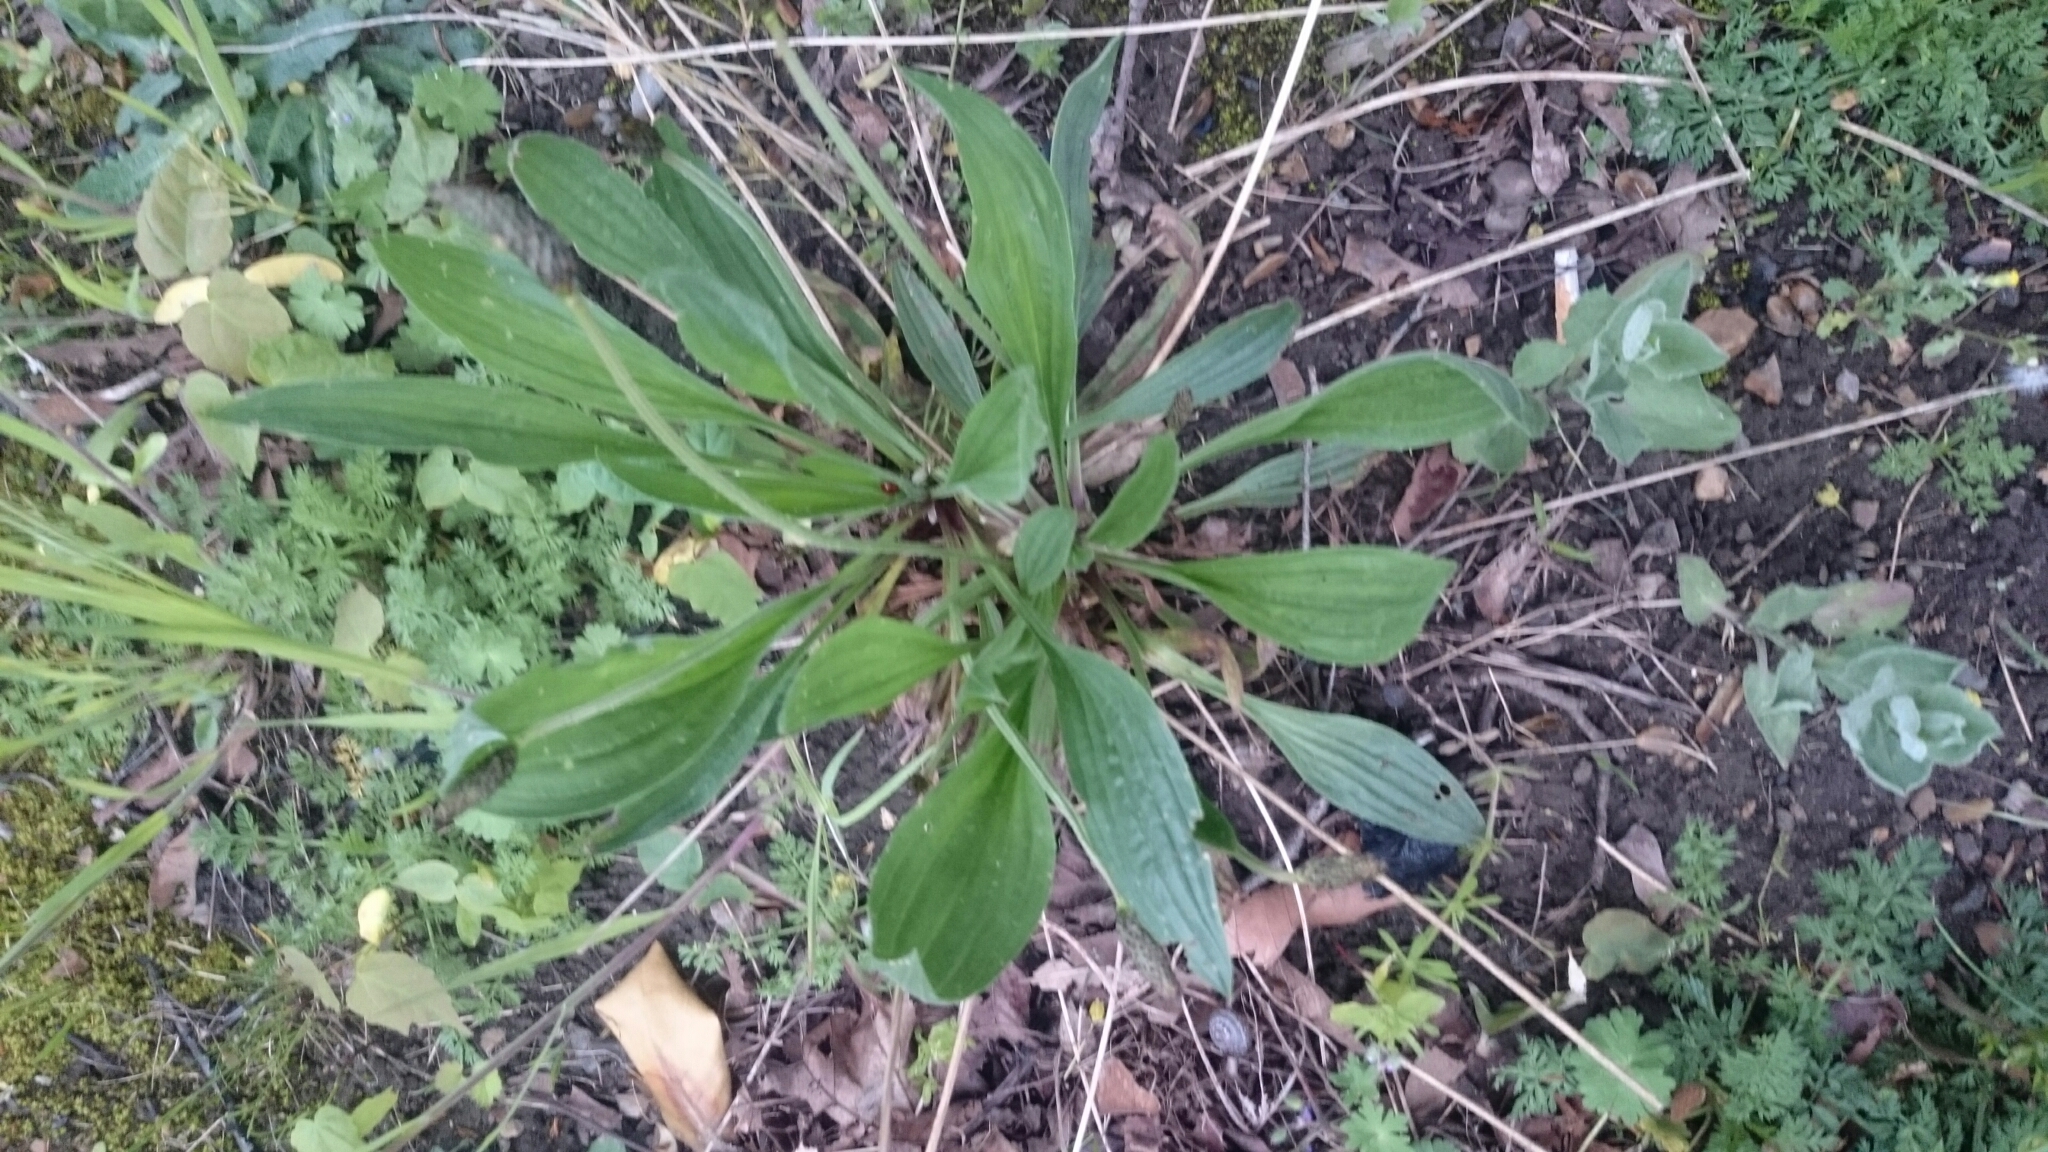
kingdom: Plantae
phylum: Tracheophyta
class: Magnoliopsida
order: Lamiales
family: Plantaginaceae
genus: Plantago
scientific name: Plantago lanceolata
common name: Ribwort plantain
